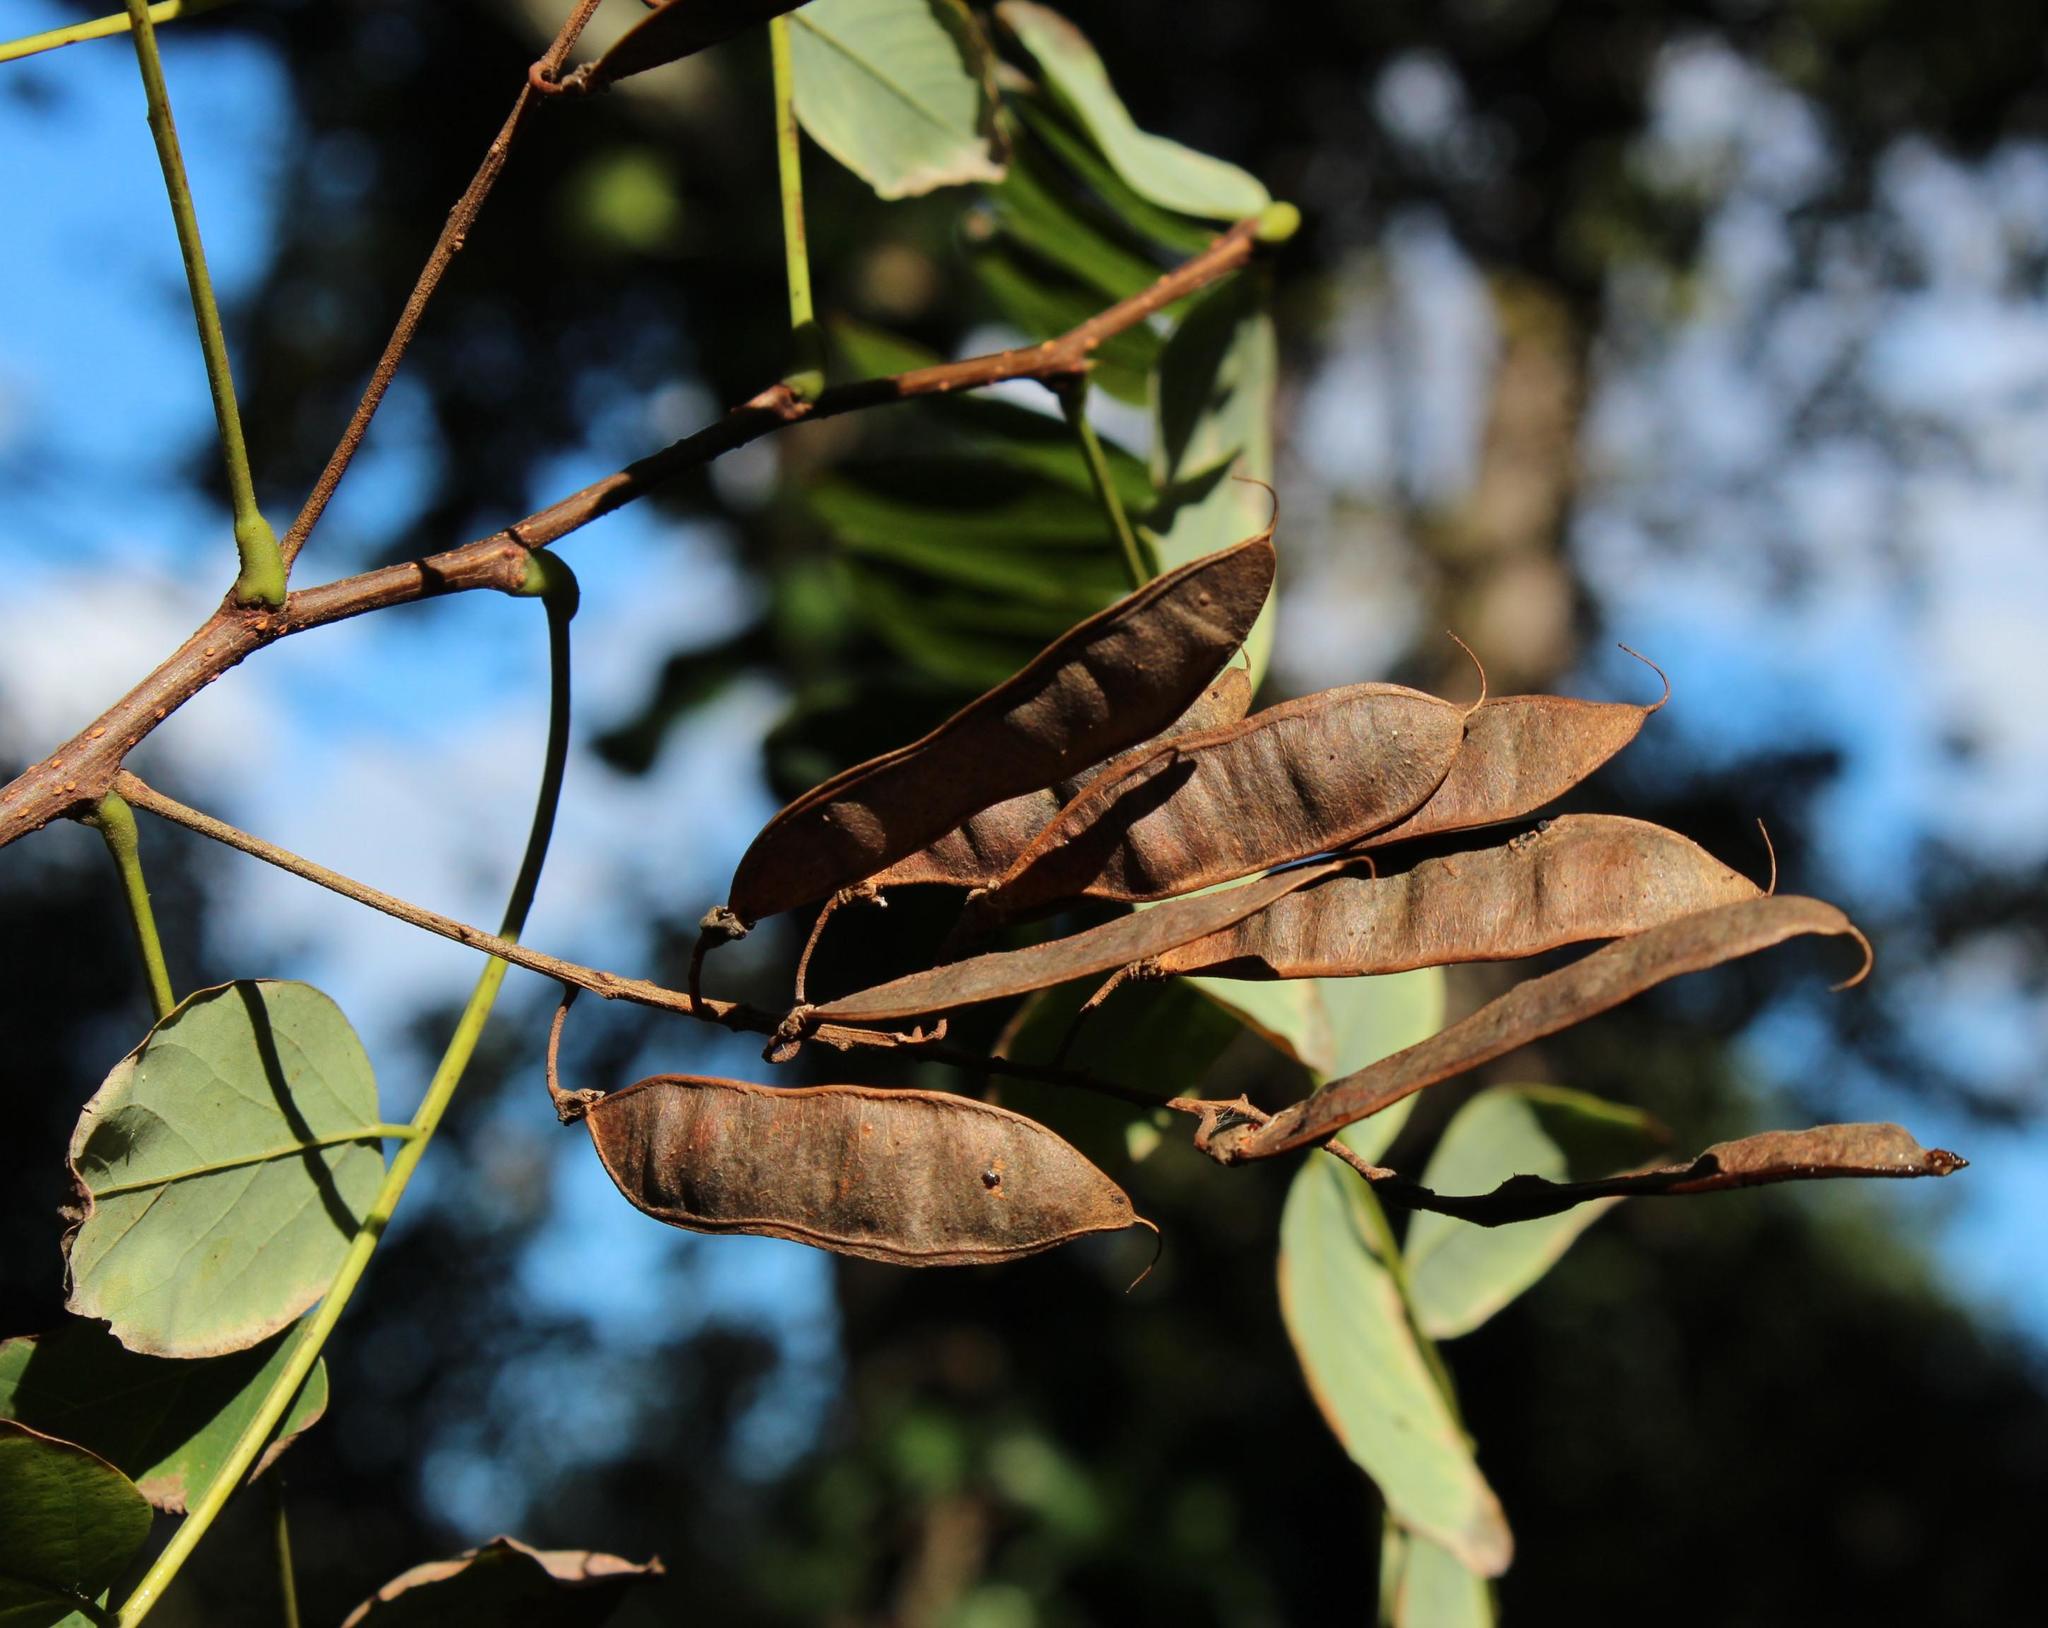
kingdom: Plantae
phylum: Tracheophyta
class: Magnoliopsida
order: Fabales
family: Fabaceae
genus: Robinia
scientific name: Robinia pseudoacacia
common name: Black locust
